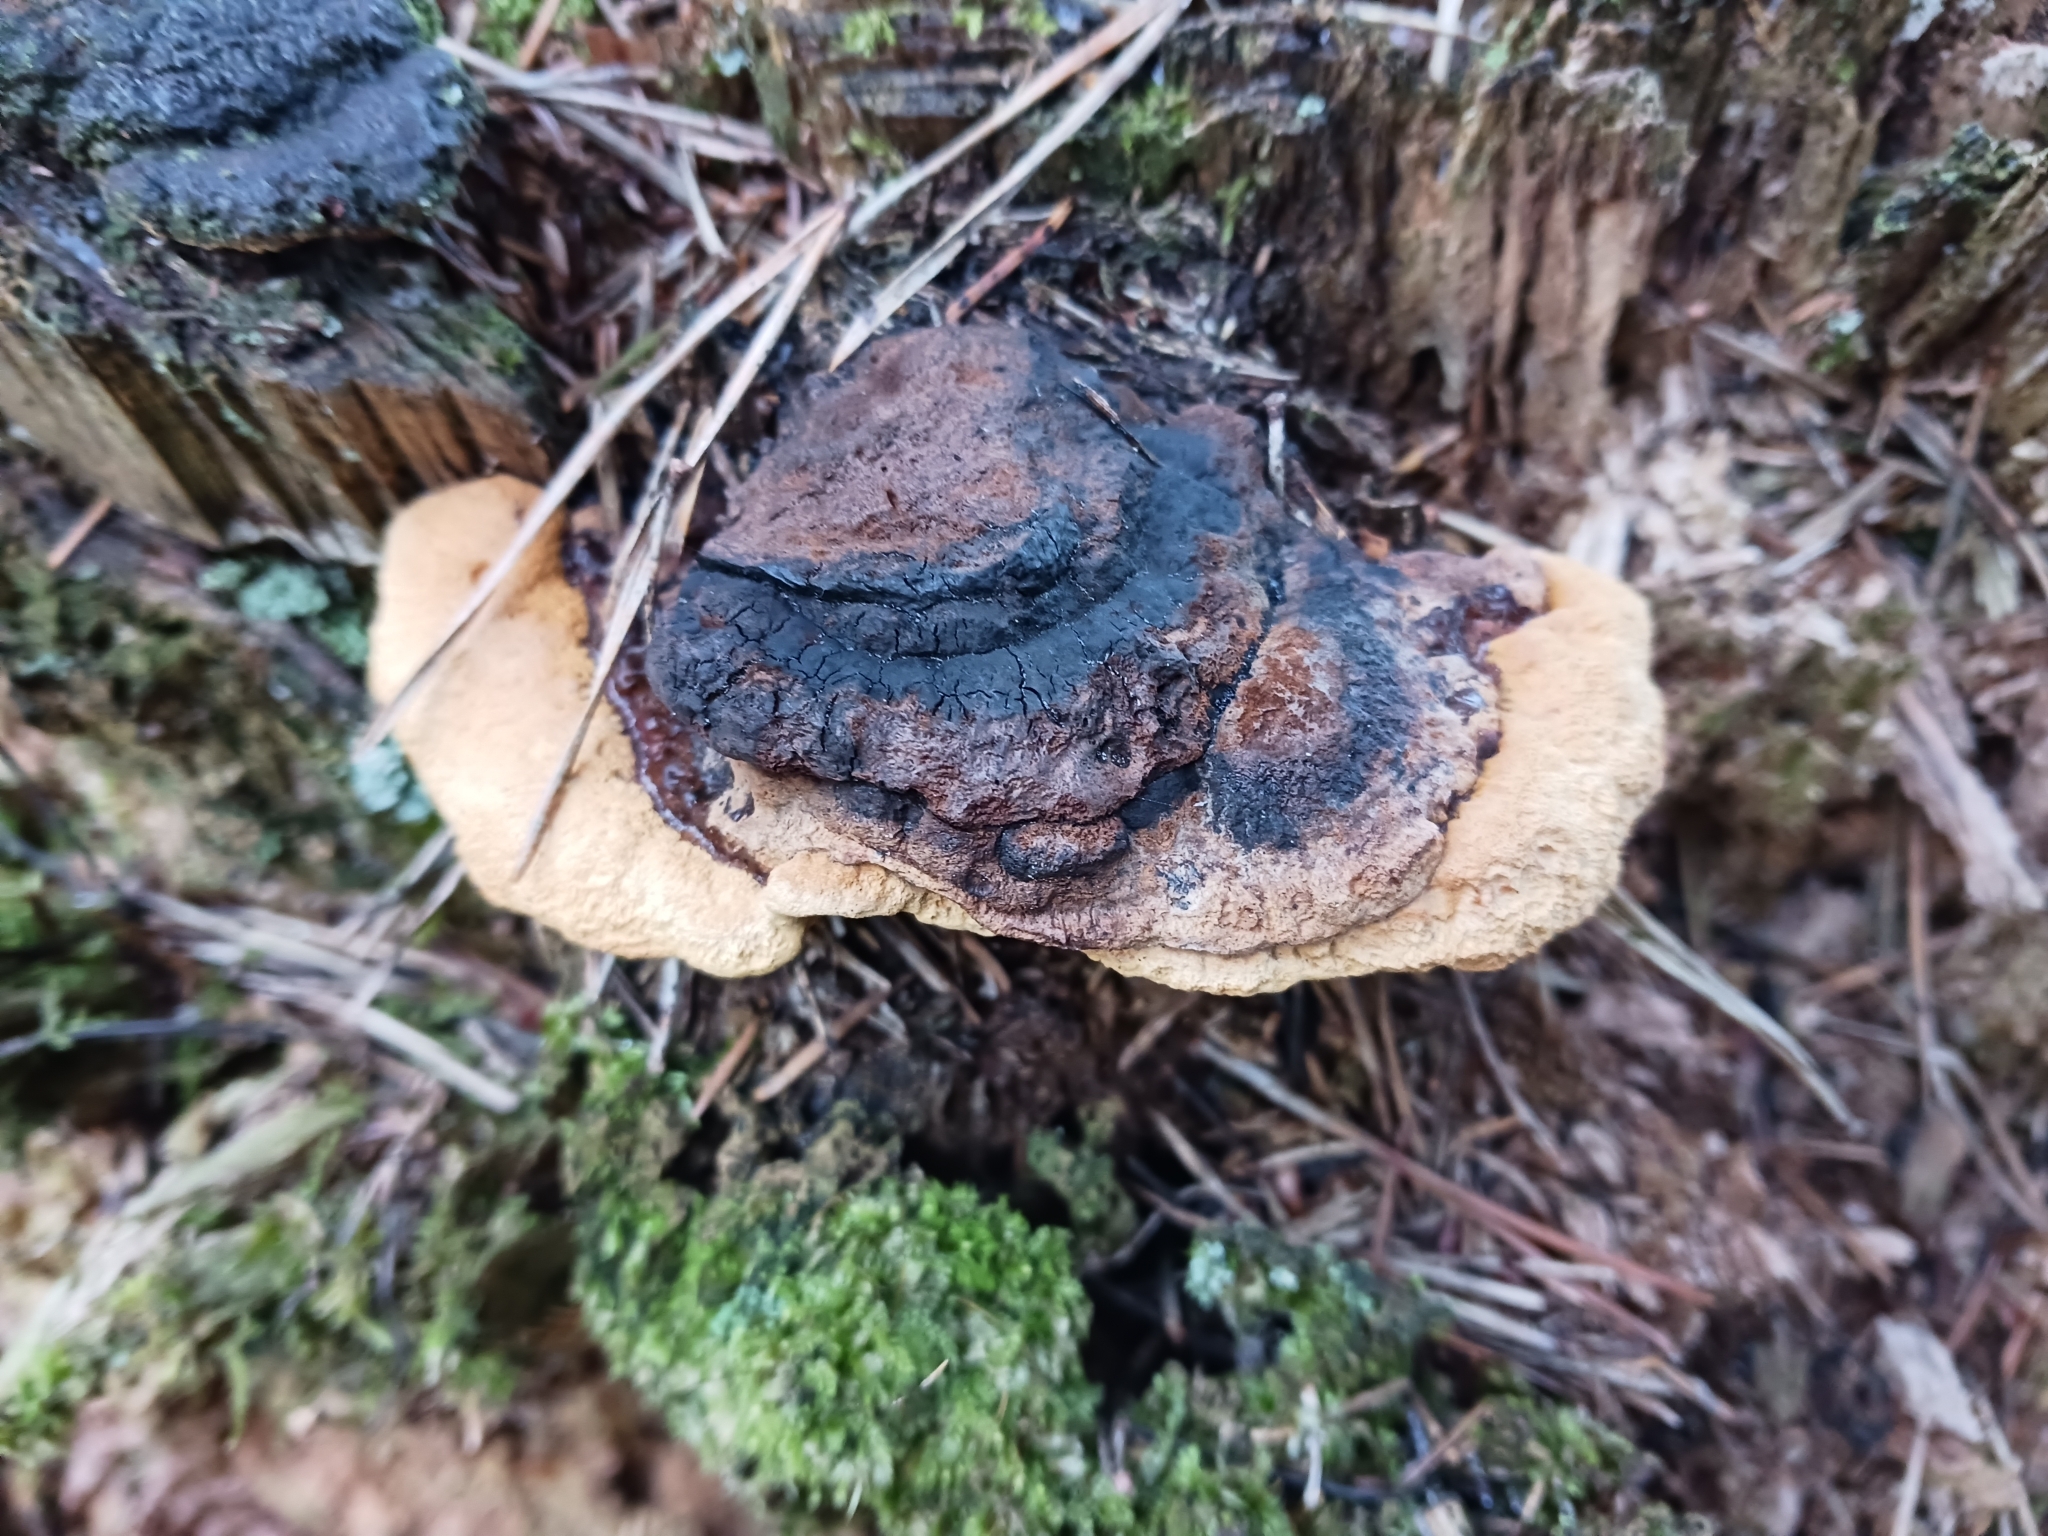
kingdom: Fungi
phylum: Basidiomycota
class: Agaricomycetes
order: Gloeophyllales
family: Gloeophyllaceae
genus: Gloeophyllum
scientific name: Gloeophyllum odoratum
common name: Anise mazegill
